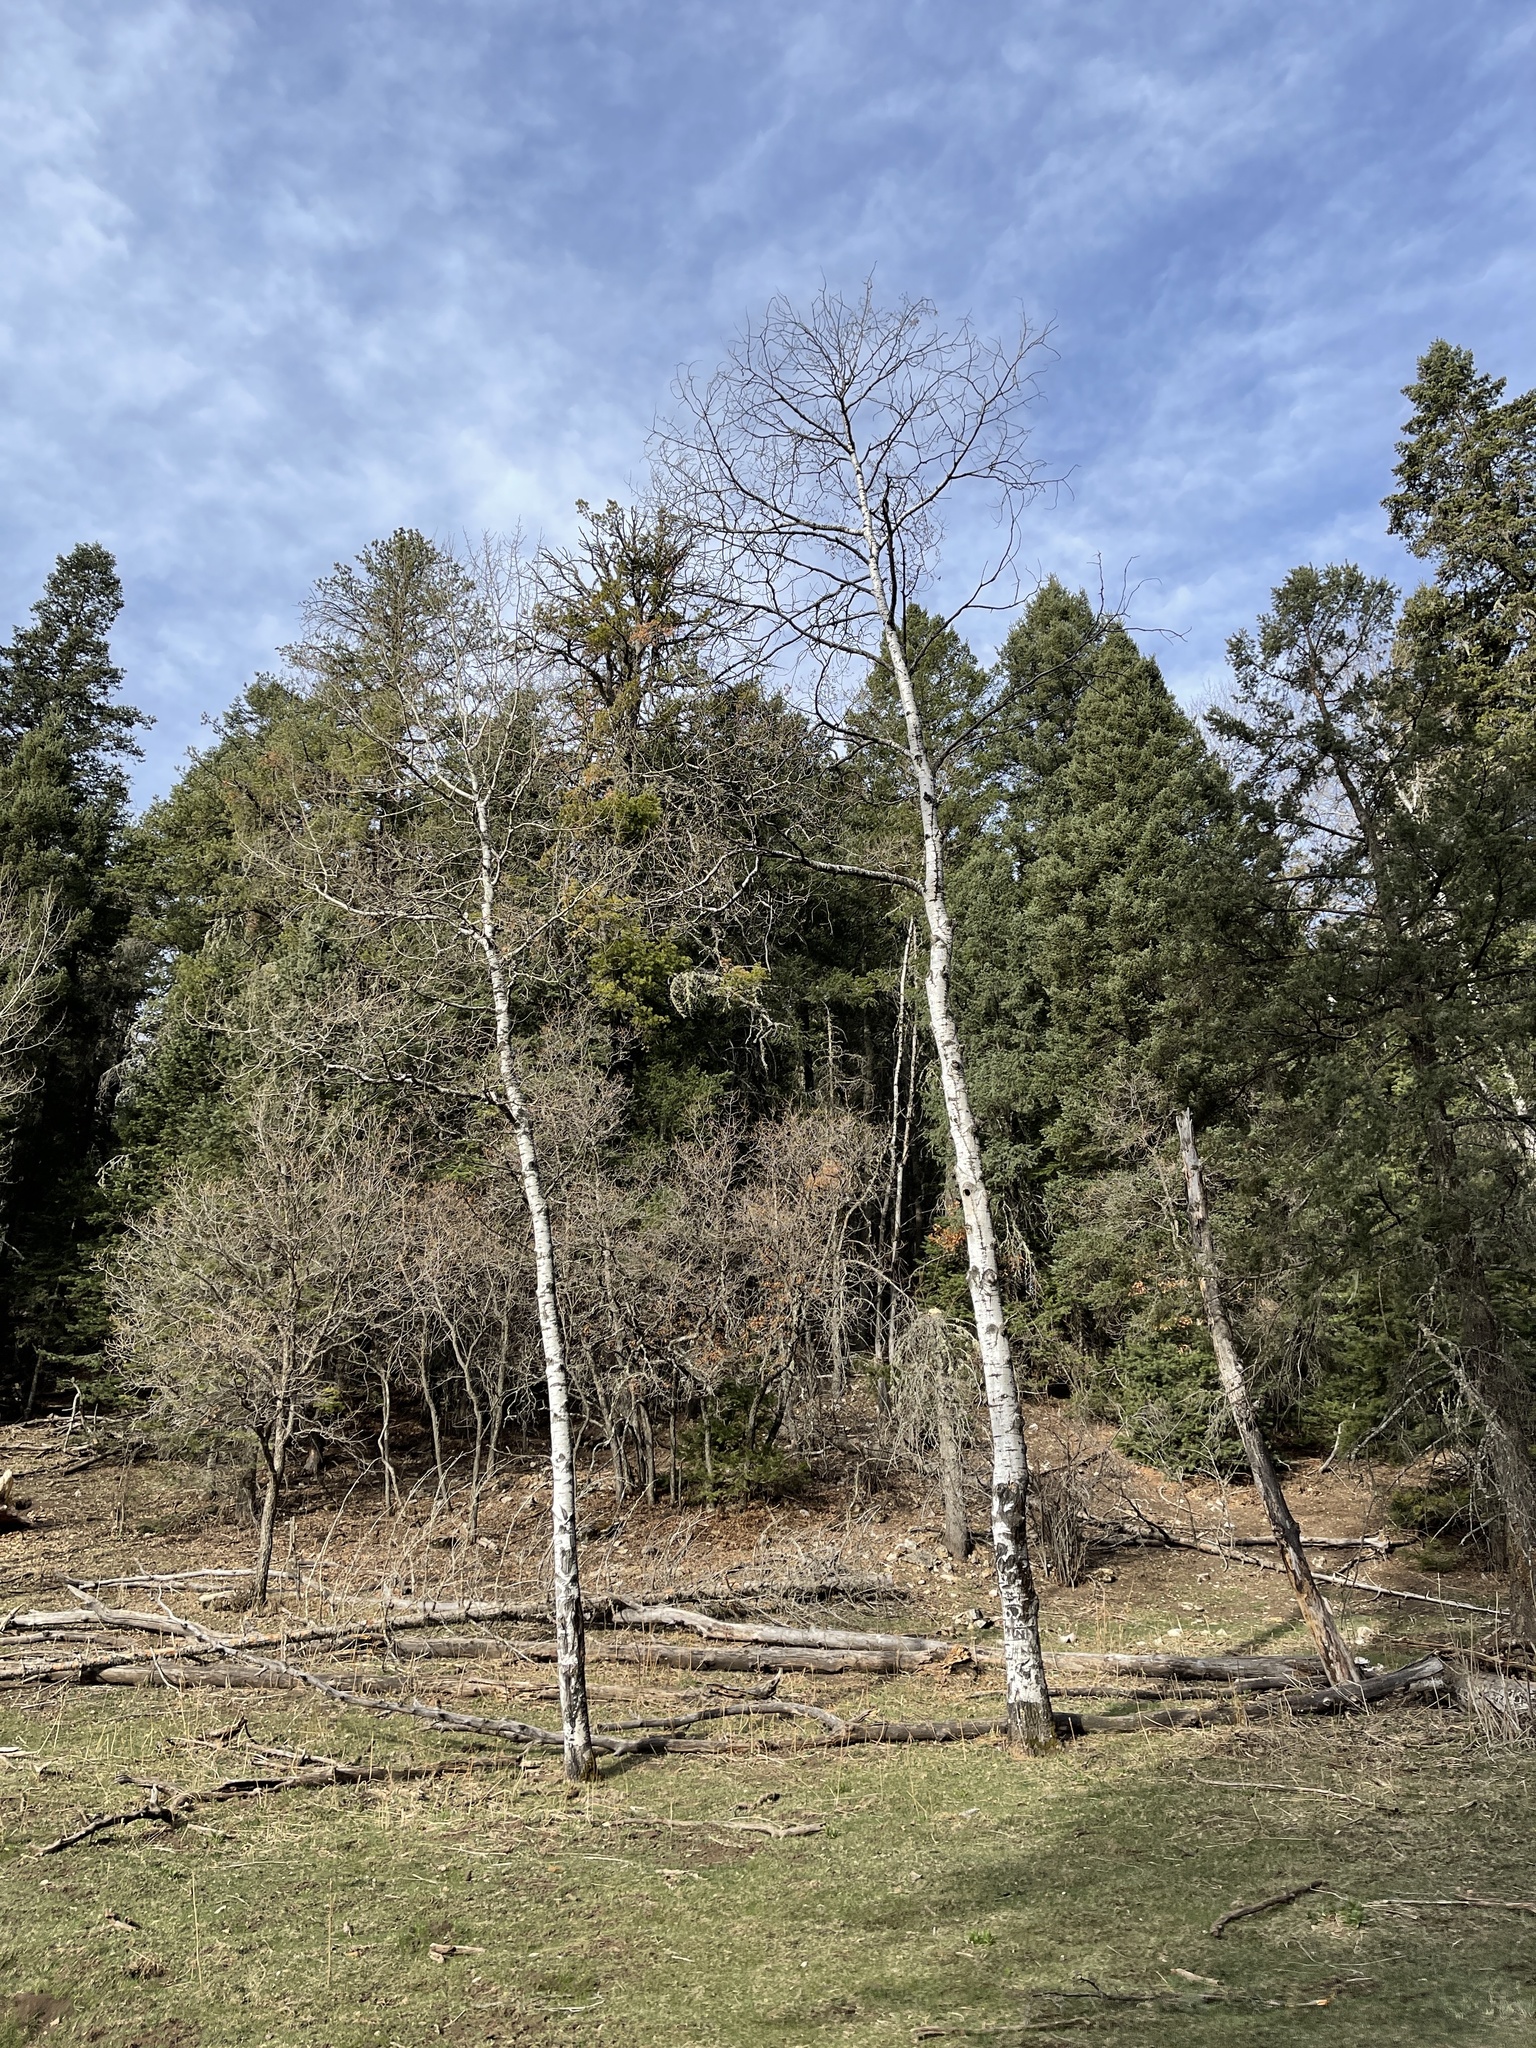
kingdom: Plantae
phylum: Tracheophyta
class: Magnoliopsida
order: Malpighiales
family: Salicaceae
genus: Populus
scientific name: Populus tremuloides
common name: Quaking aspen
